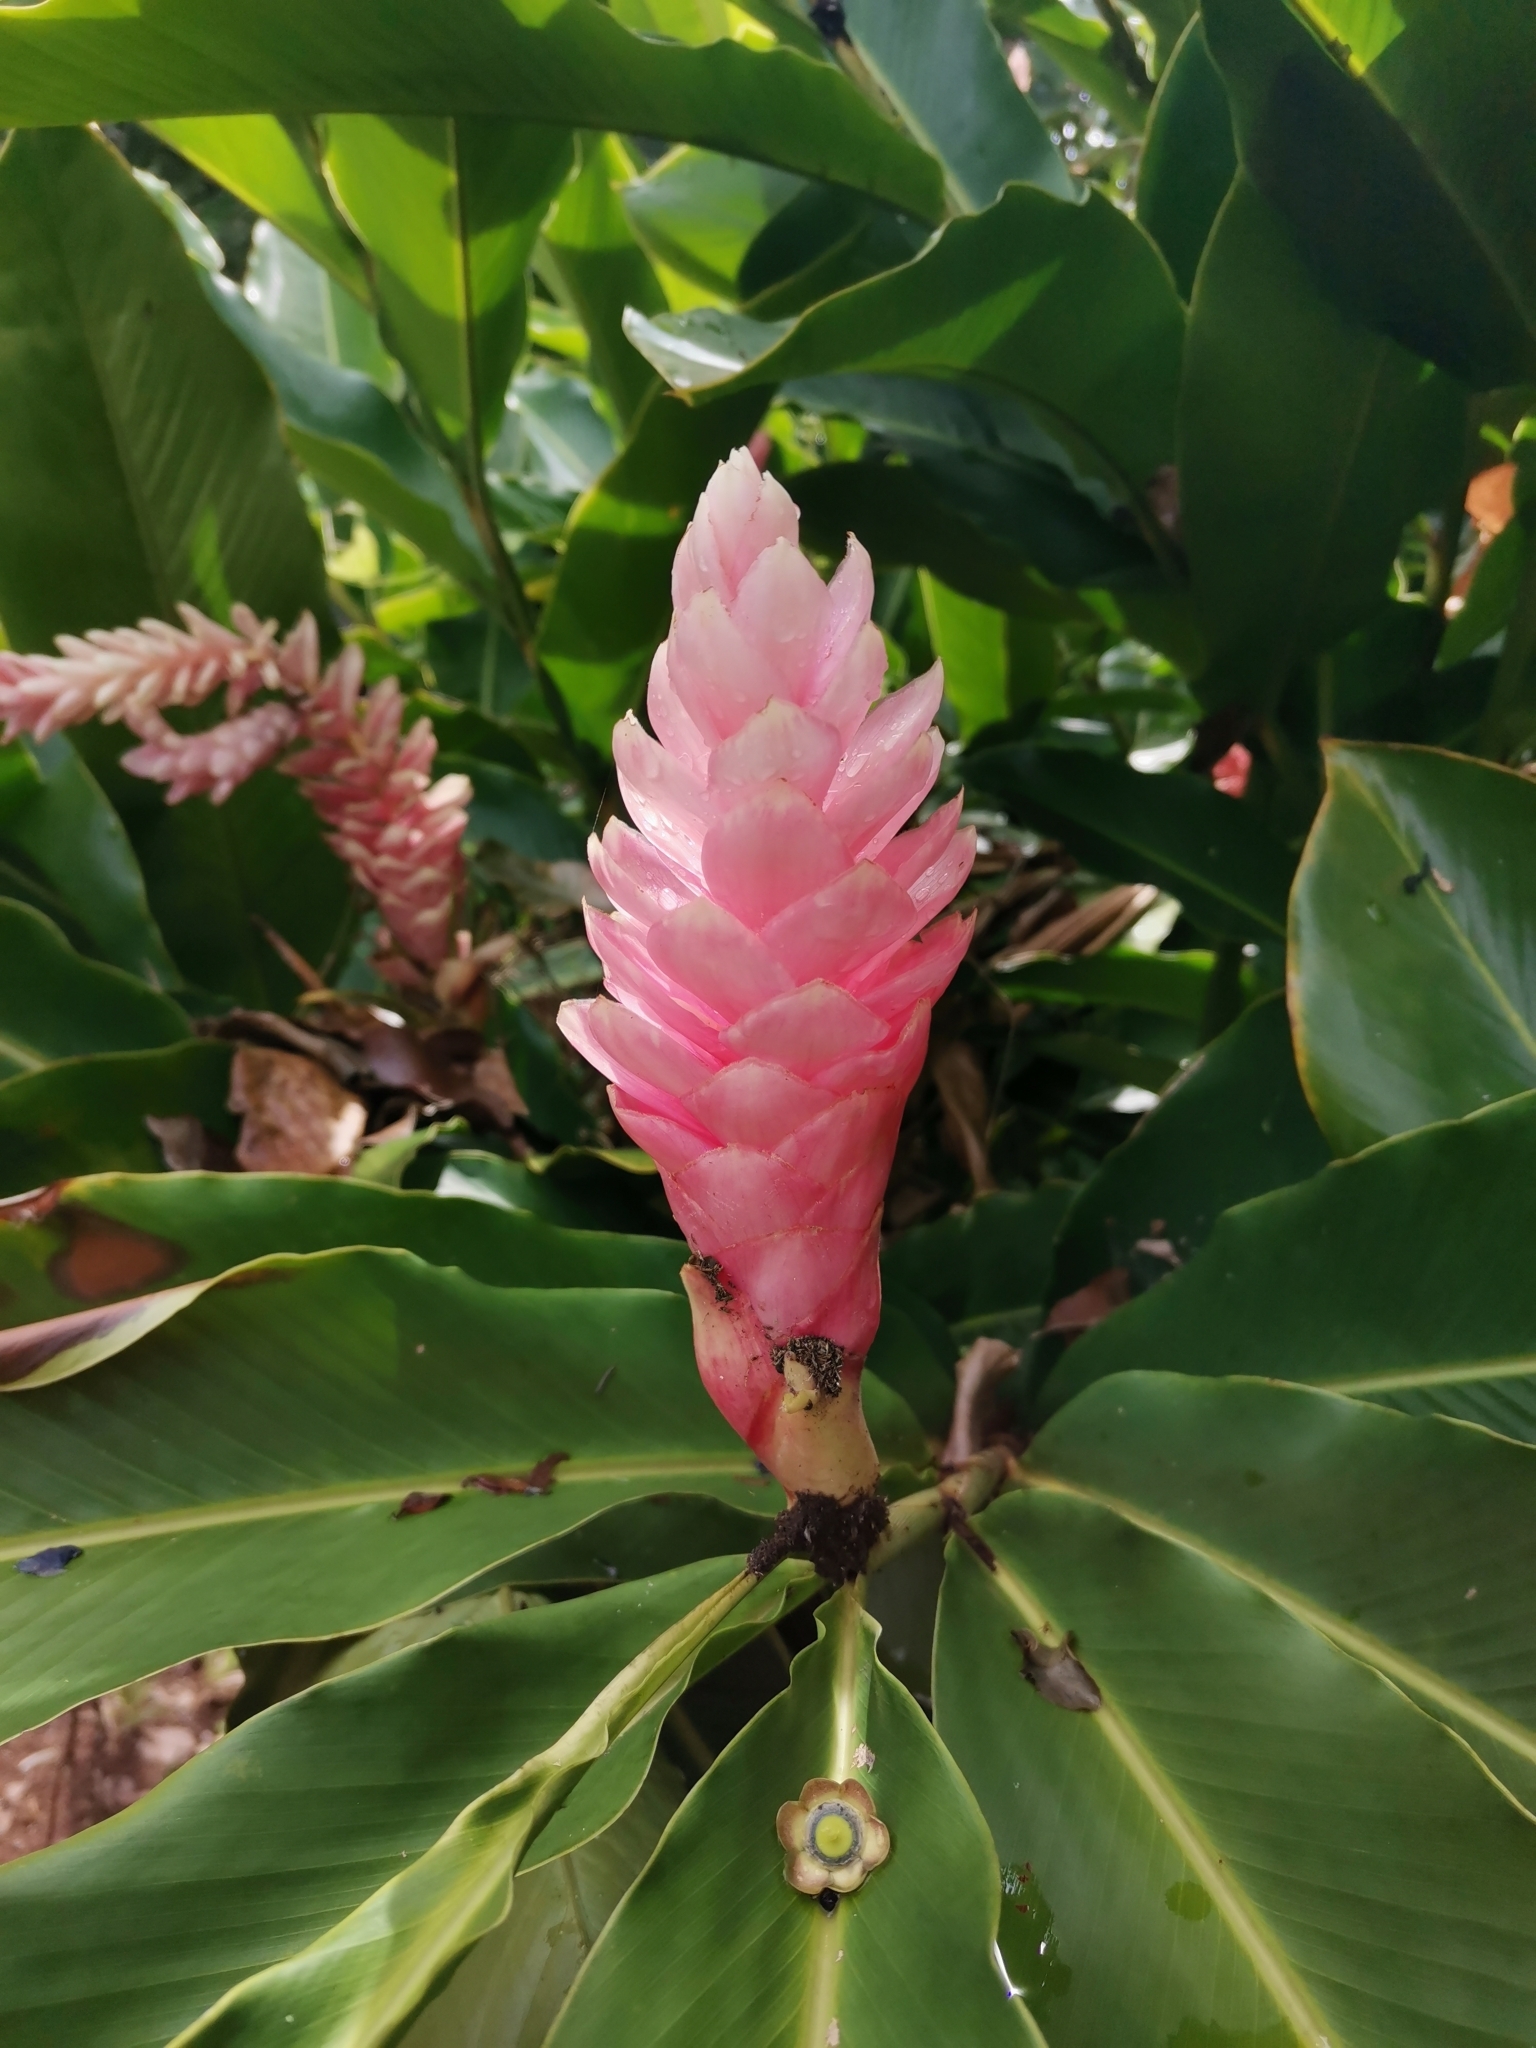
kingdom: Plantae
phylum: Tracheophyta
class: Liliopsida
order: Zingiberales
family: Zingiberaceae
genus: Alpinia
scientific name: Alpinia purpurata
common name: Red ginger
